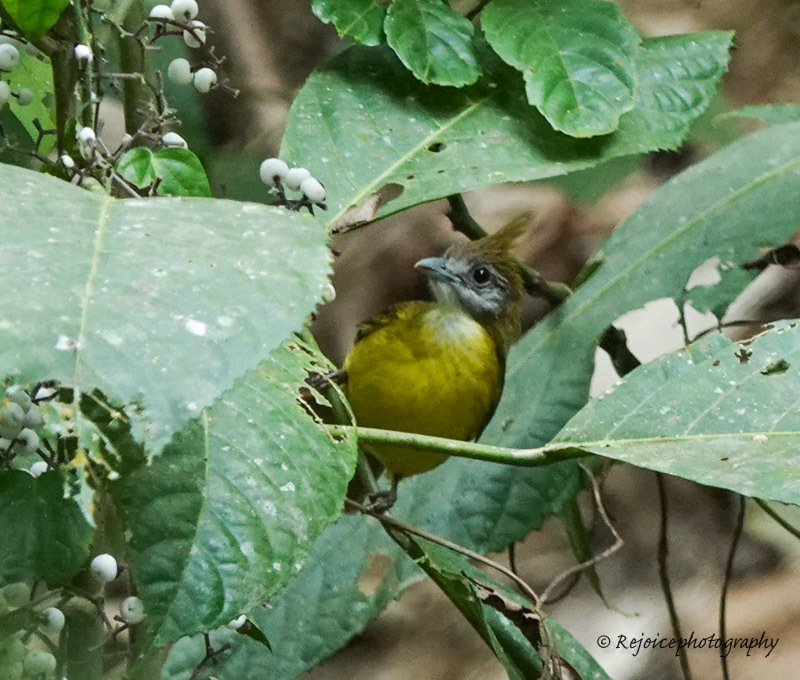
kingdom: Animalia
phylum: Chordata
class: Aves
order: Passeriformes
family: Pycnonotidae
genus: Alophoixus
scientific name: Alophoixus flaveolus
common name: White-throated bulbul
